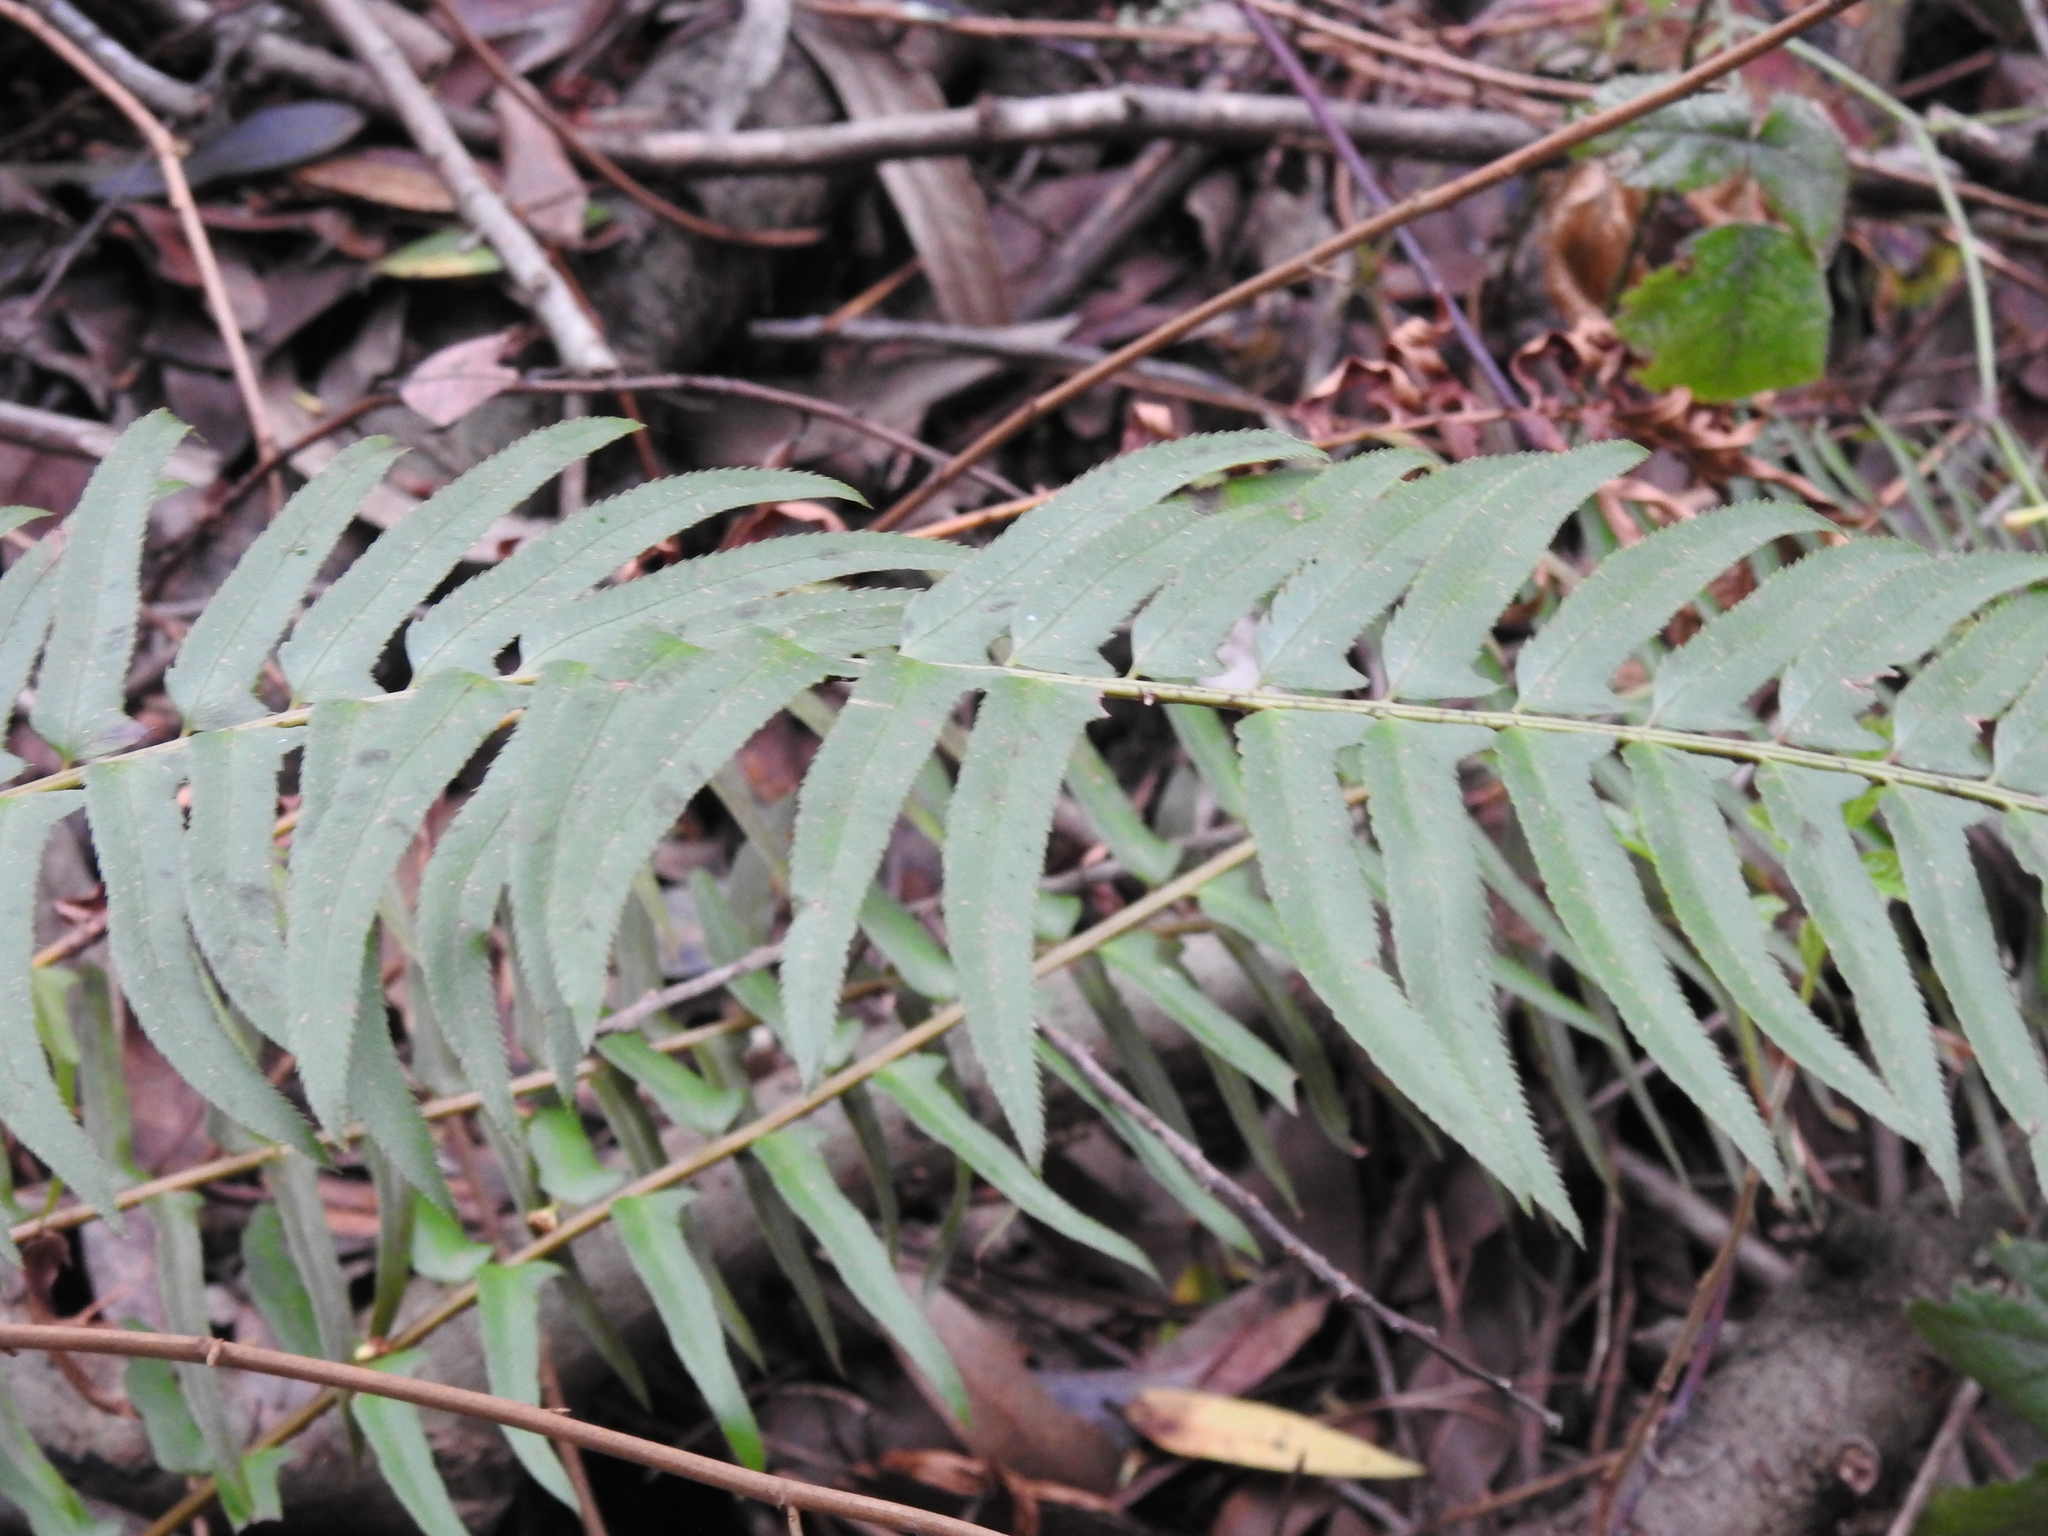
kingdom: Plantae
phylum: Tracheophyta
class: Polypodiopsida
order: Polypodiales
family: Dryopteridaceae
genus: Polystichum
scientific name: Polystichum munitum
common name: Western sword-fern
